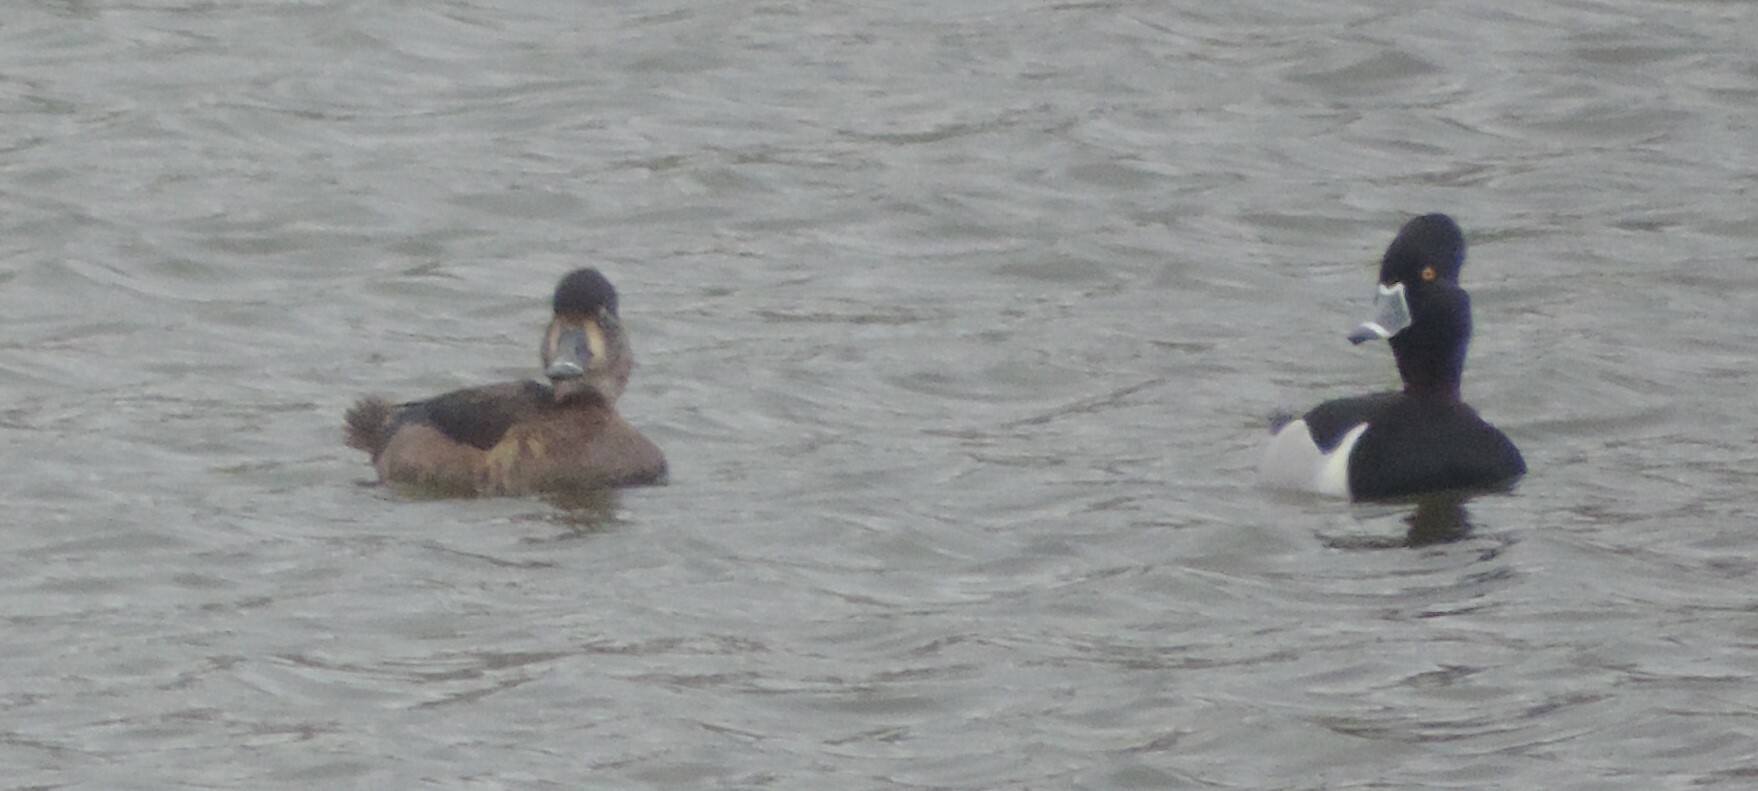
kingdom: Animalia
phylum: Chordata
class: Aves
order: Anseriformes
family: Anatidae
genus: Aythya
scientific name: Aythya collaris
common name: Ring-necked duck
